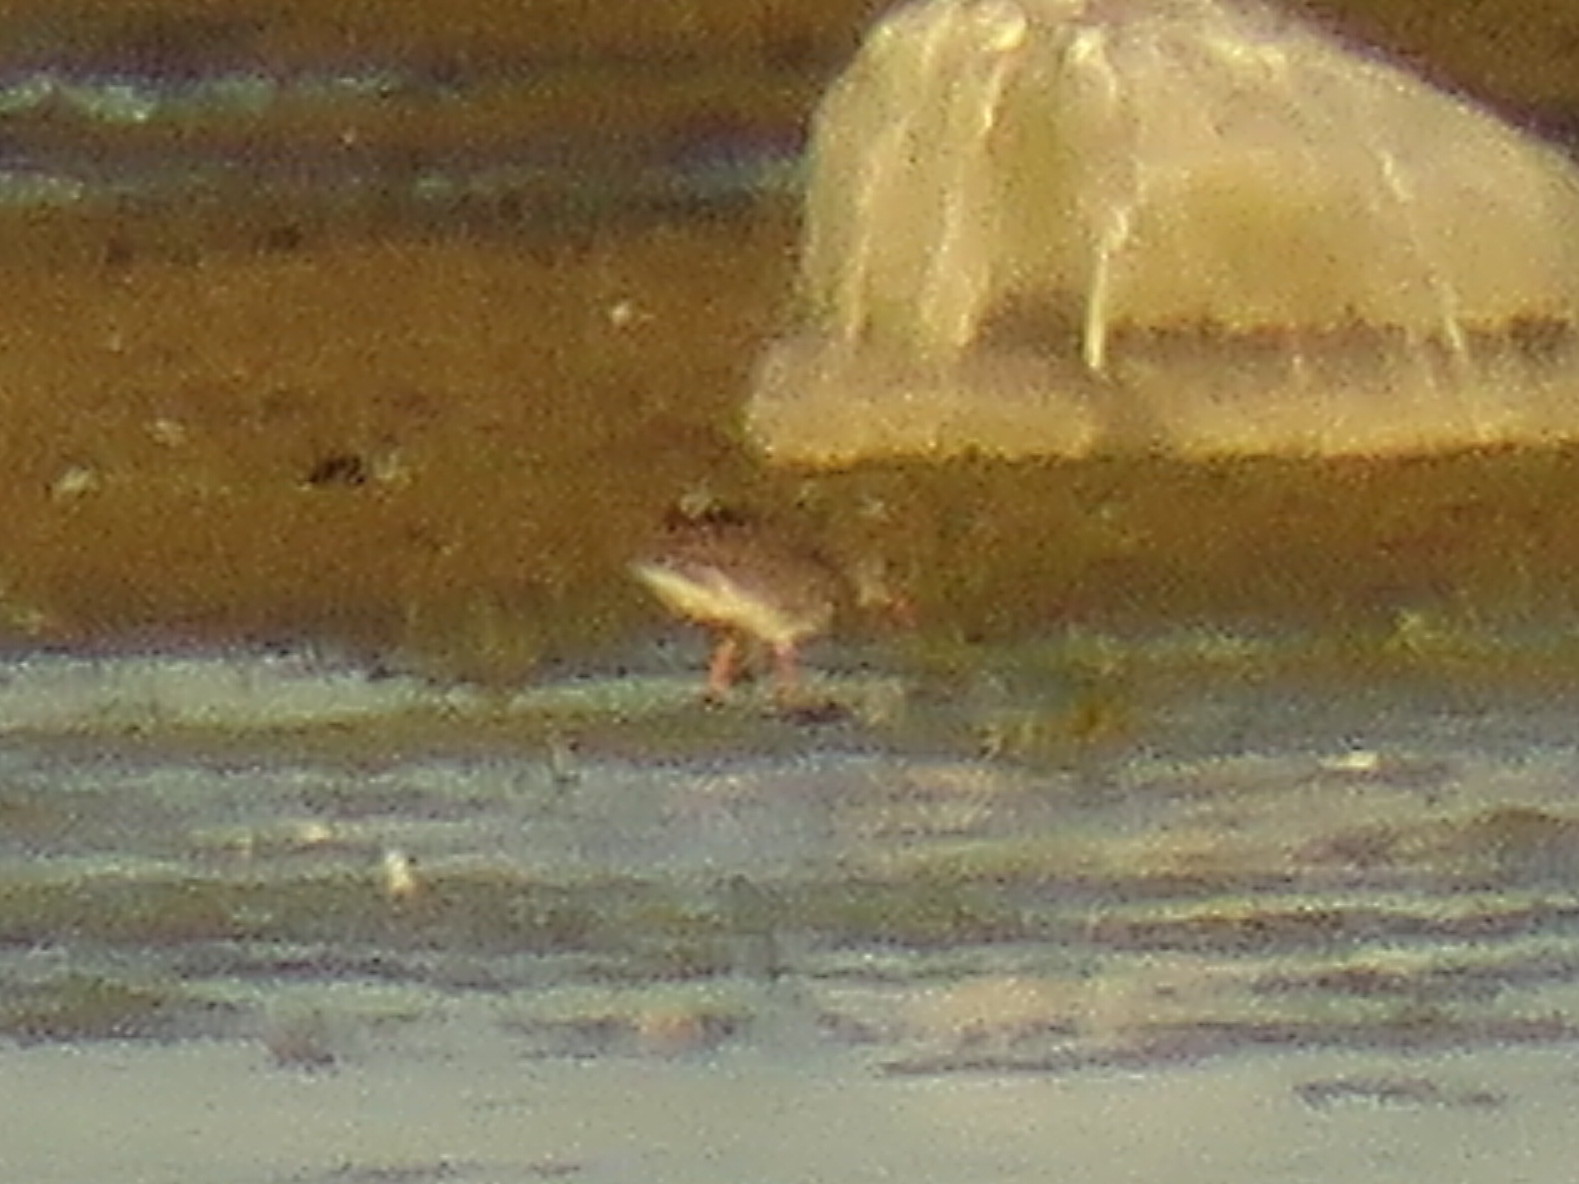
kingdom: Animalia
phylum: Chordata
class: Aves
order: Charadriiformes
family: Scolopacidae
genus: Tringa
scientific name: Tringa totanus
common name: Common redshank
